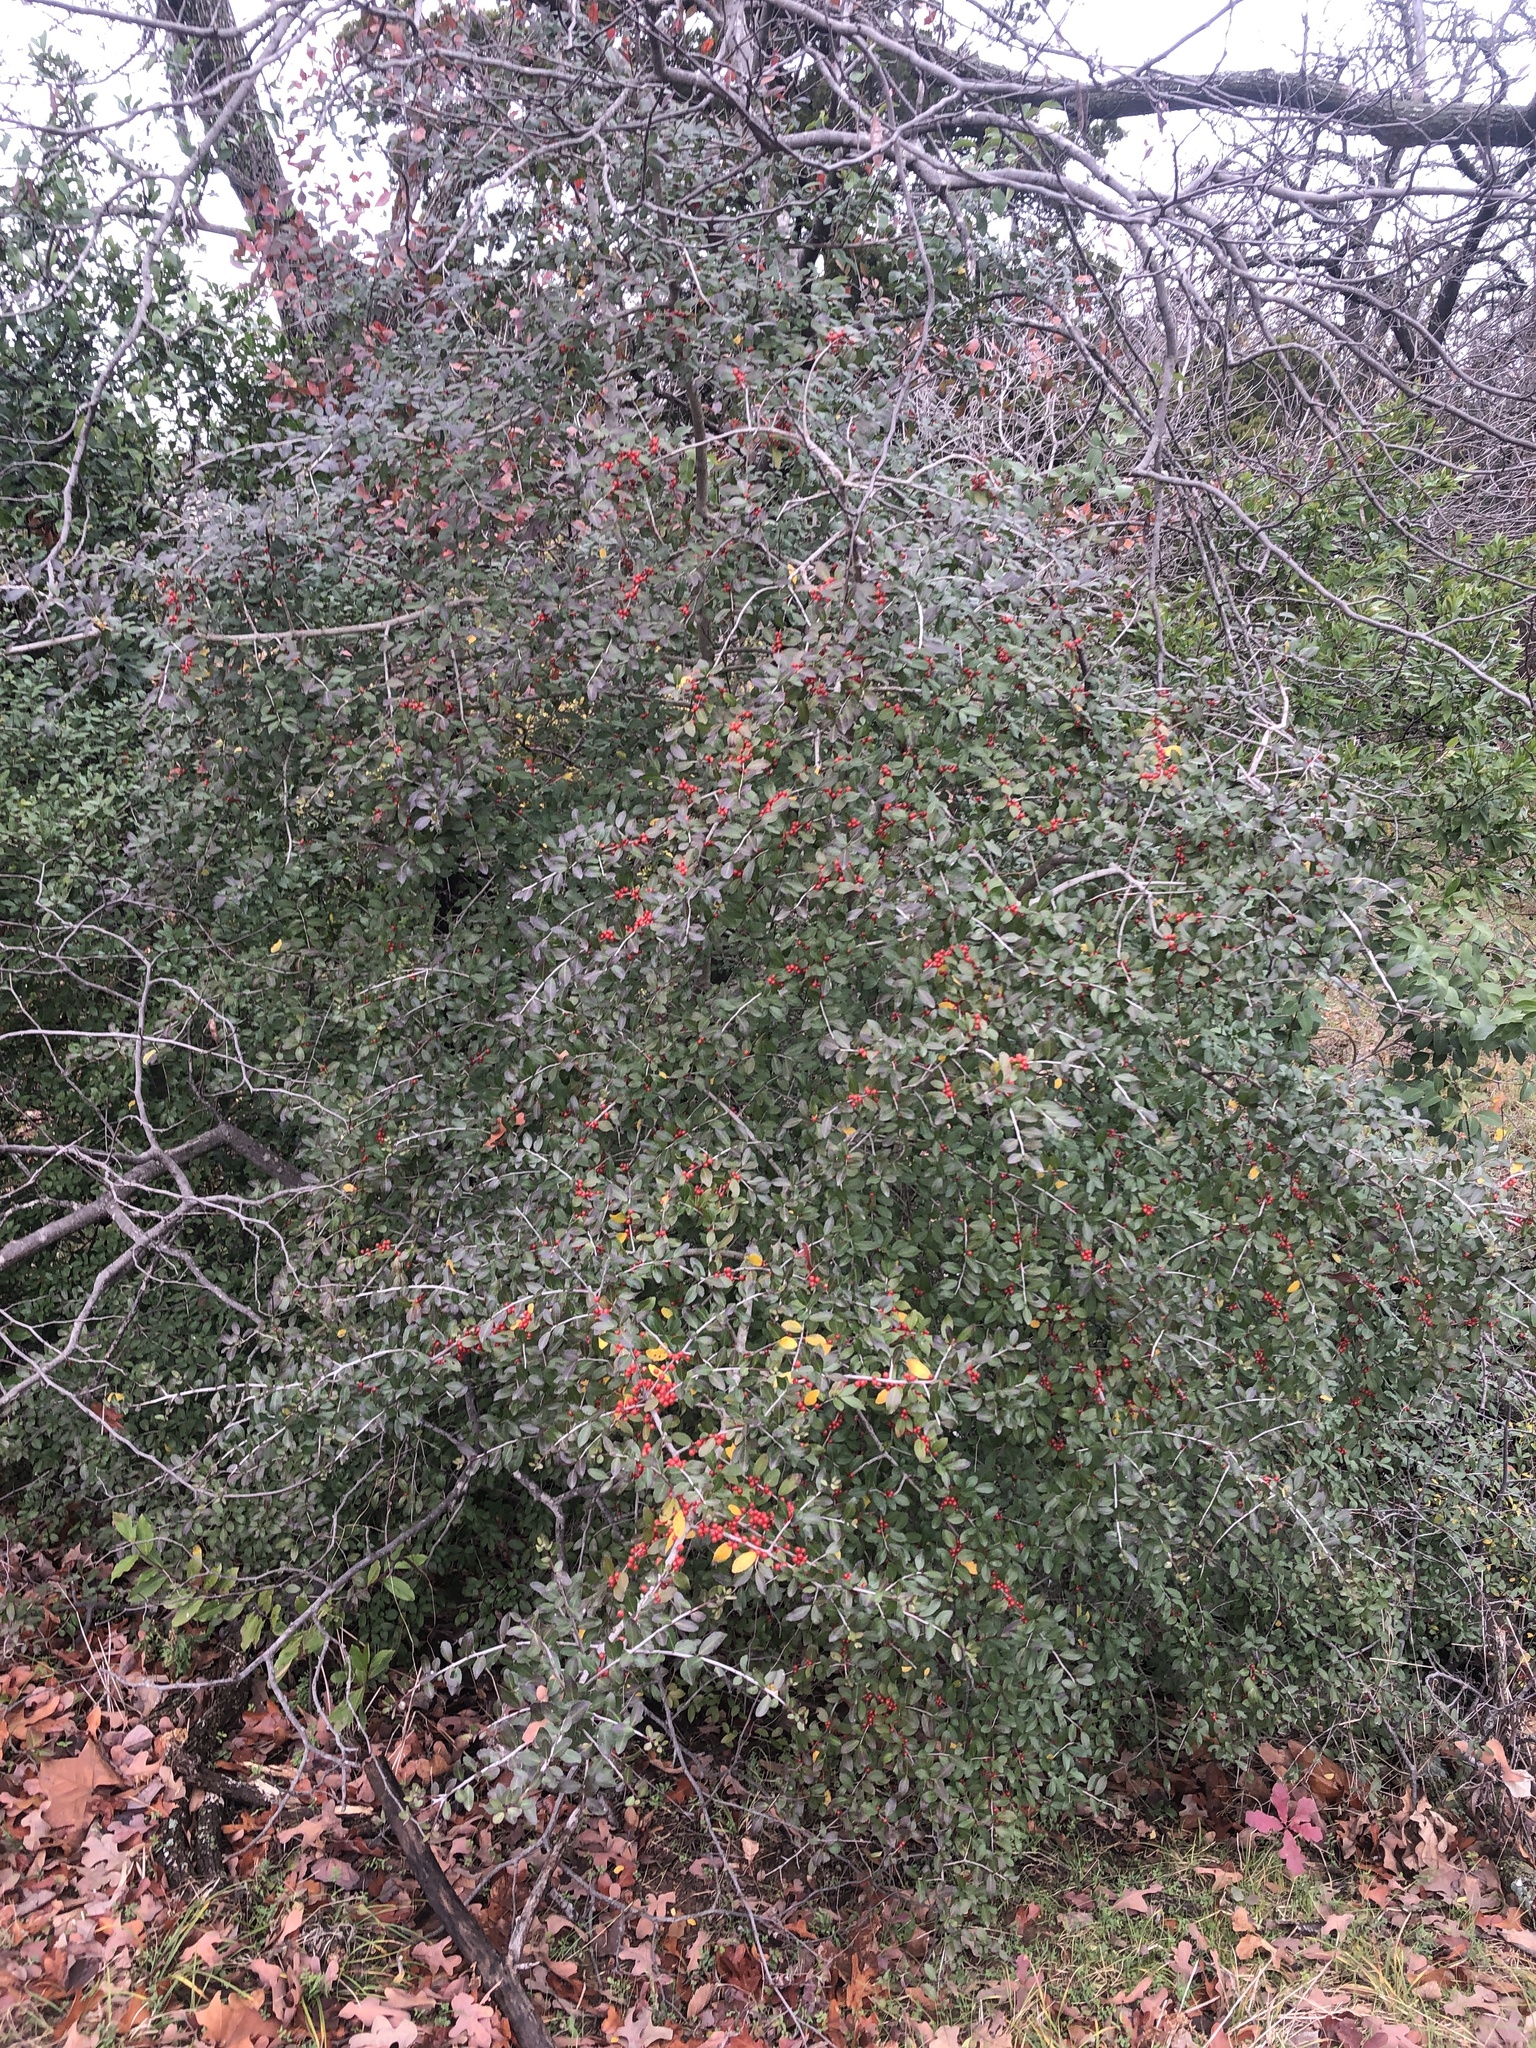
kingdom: Plantae
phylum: Tracheophyta
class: Magnoliopsida
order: Aquifoliales
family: Aquifoliaceae
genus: Ilex
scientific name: Ilex vomitoria
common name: Yaupon holly
